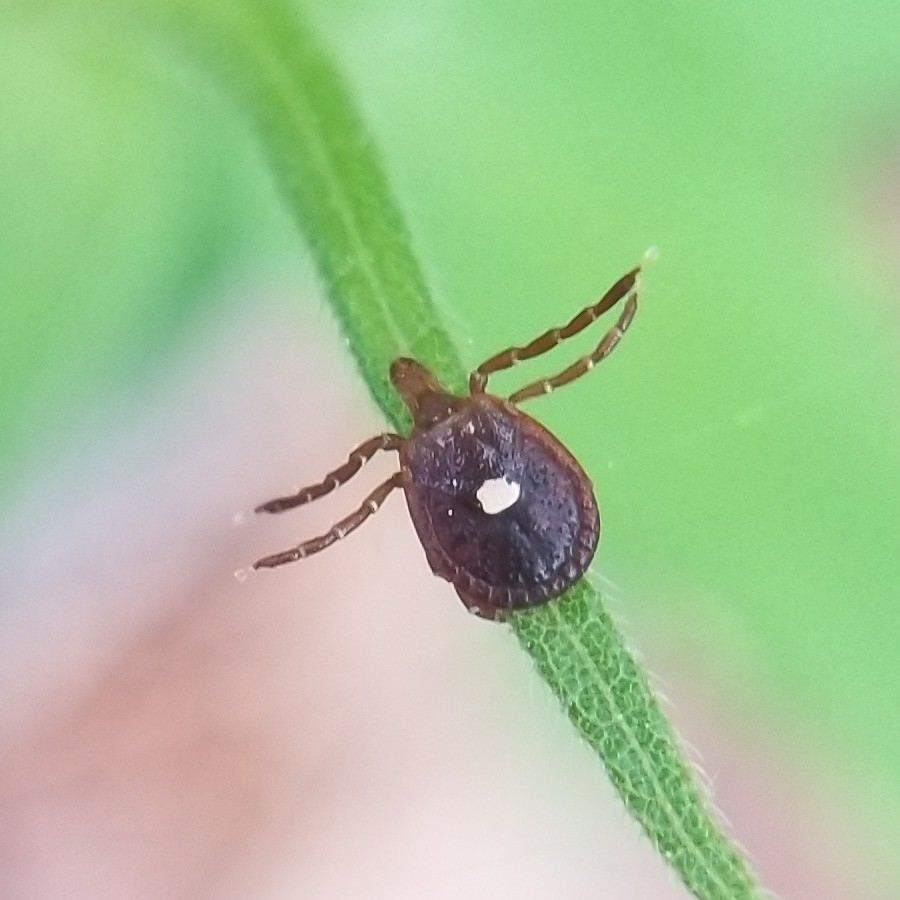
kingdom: Animalia
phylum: Arthropoda
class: Arachnida
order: Ixodida
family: Ixodidae
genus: Amblyomma
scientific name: Amblyomma americanum
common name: Lone star tick
